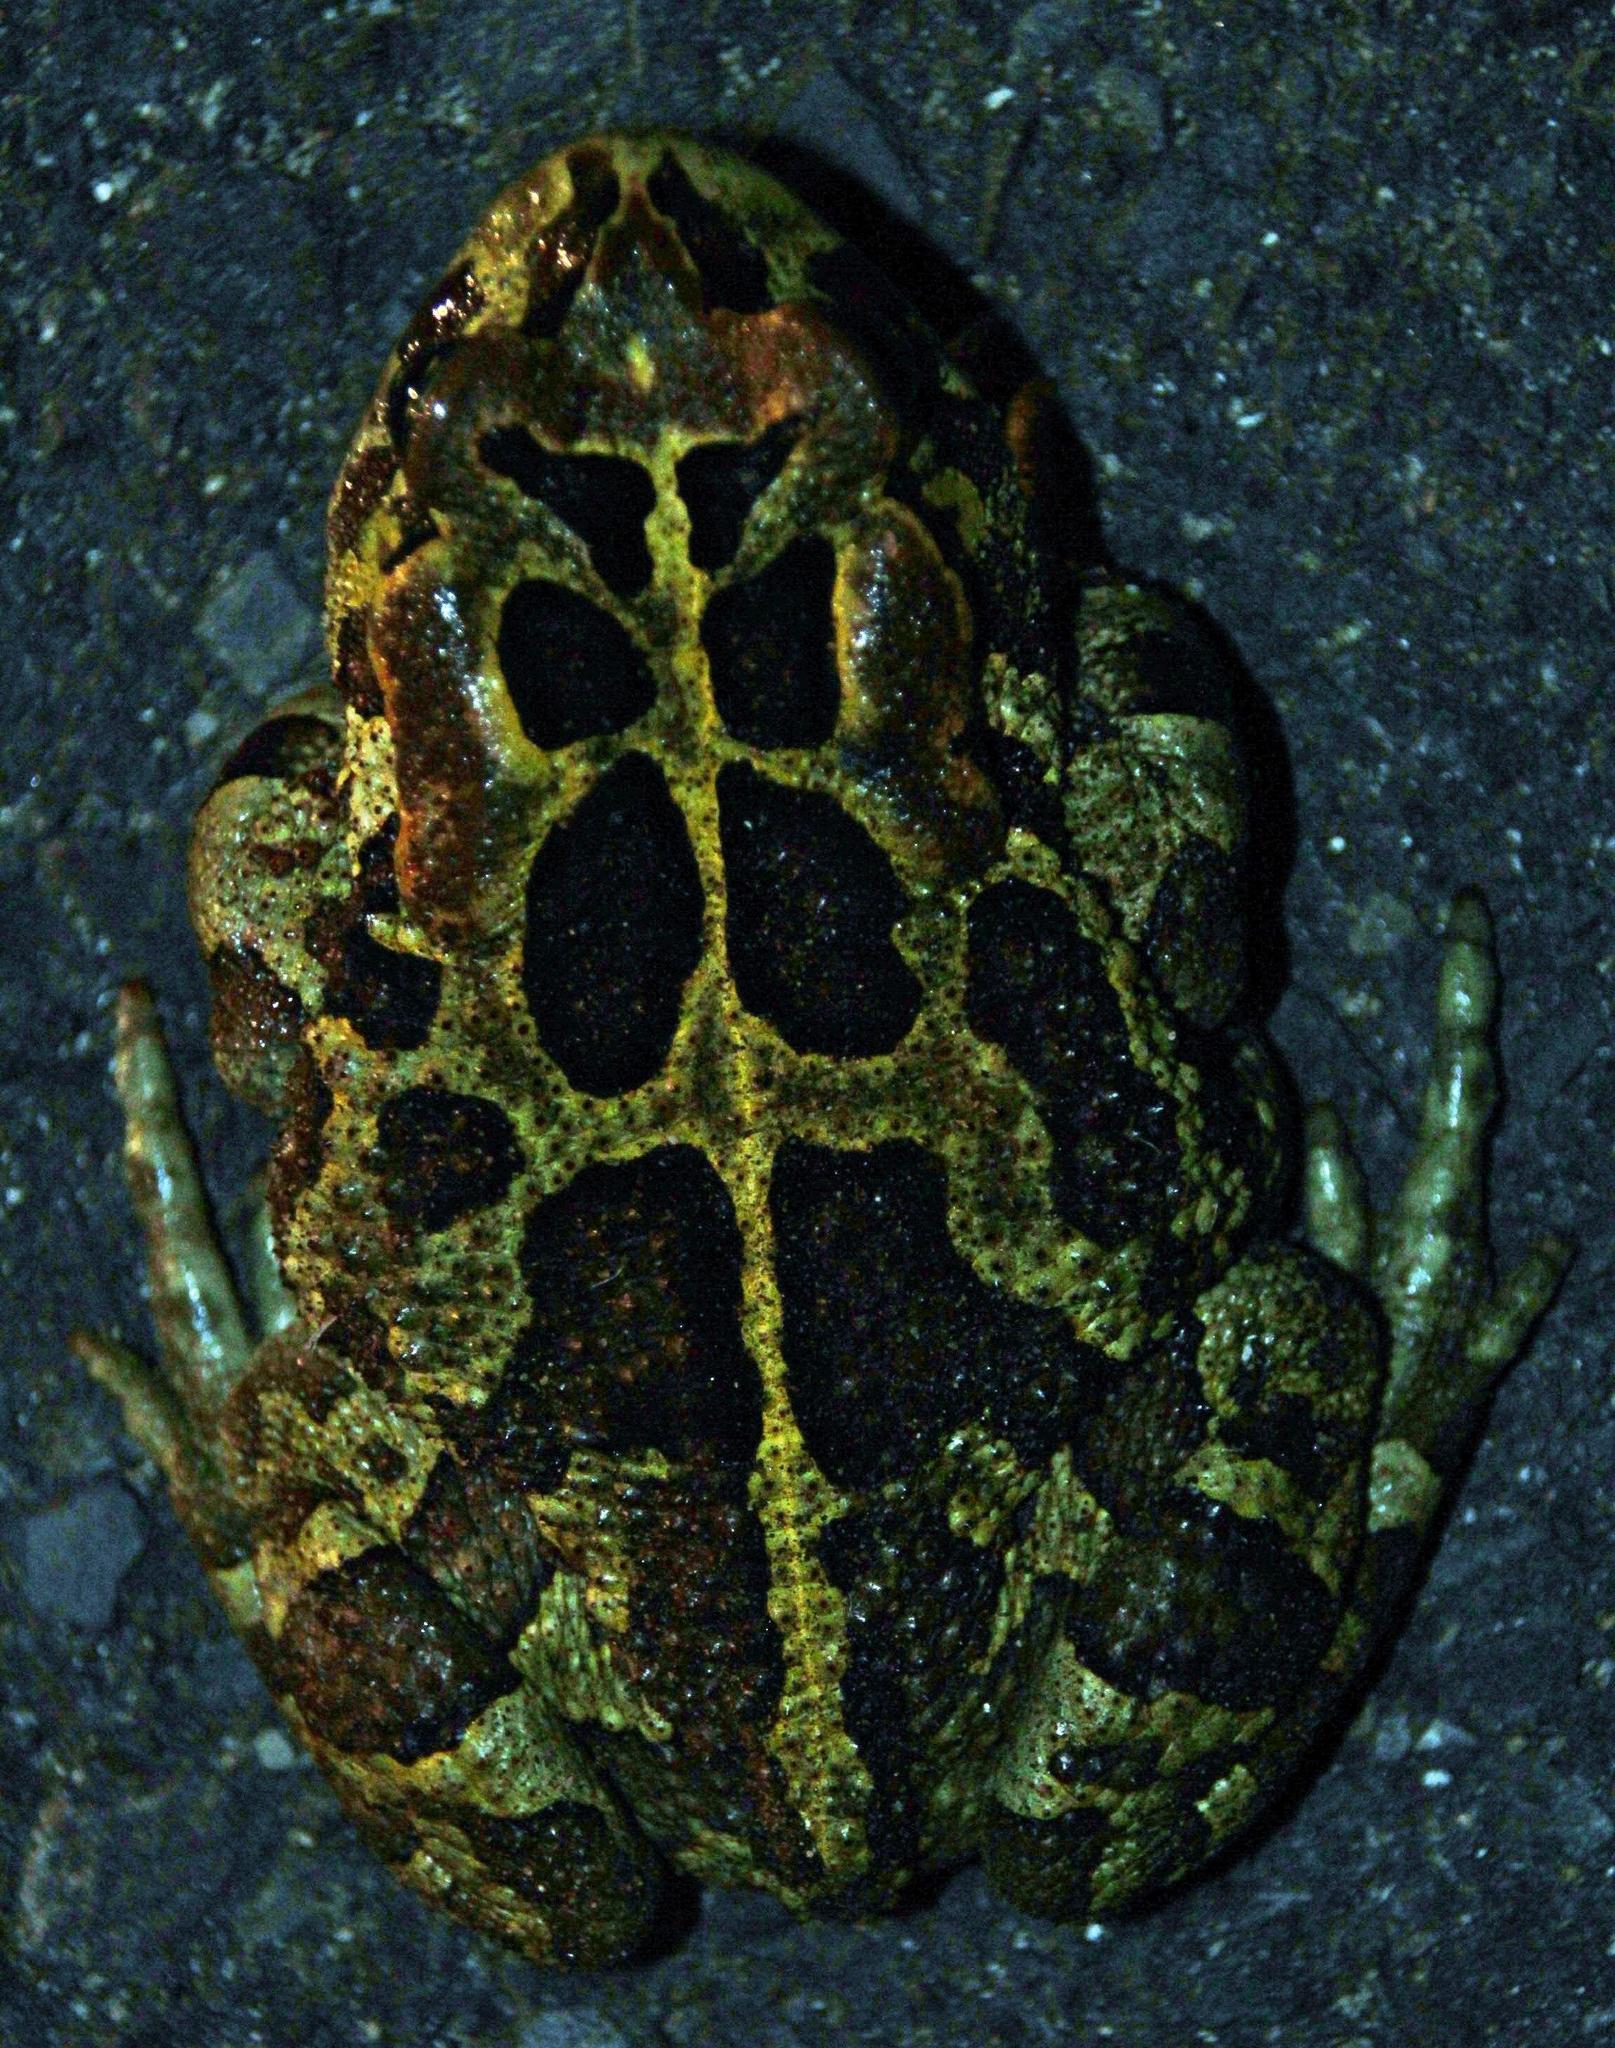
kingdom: Animalia
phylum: Chordata
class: Amphibia
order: Anura
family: Bufonidae
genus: Sclerophrys
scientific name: Sclerophrys pantherina
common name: Panther toad
